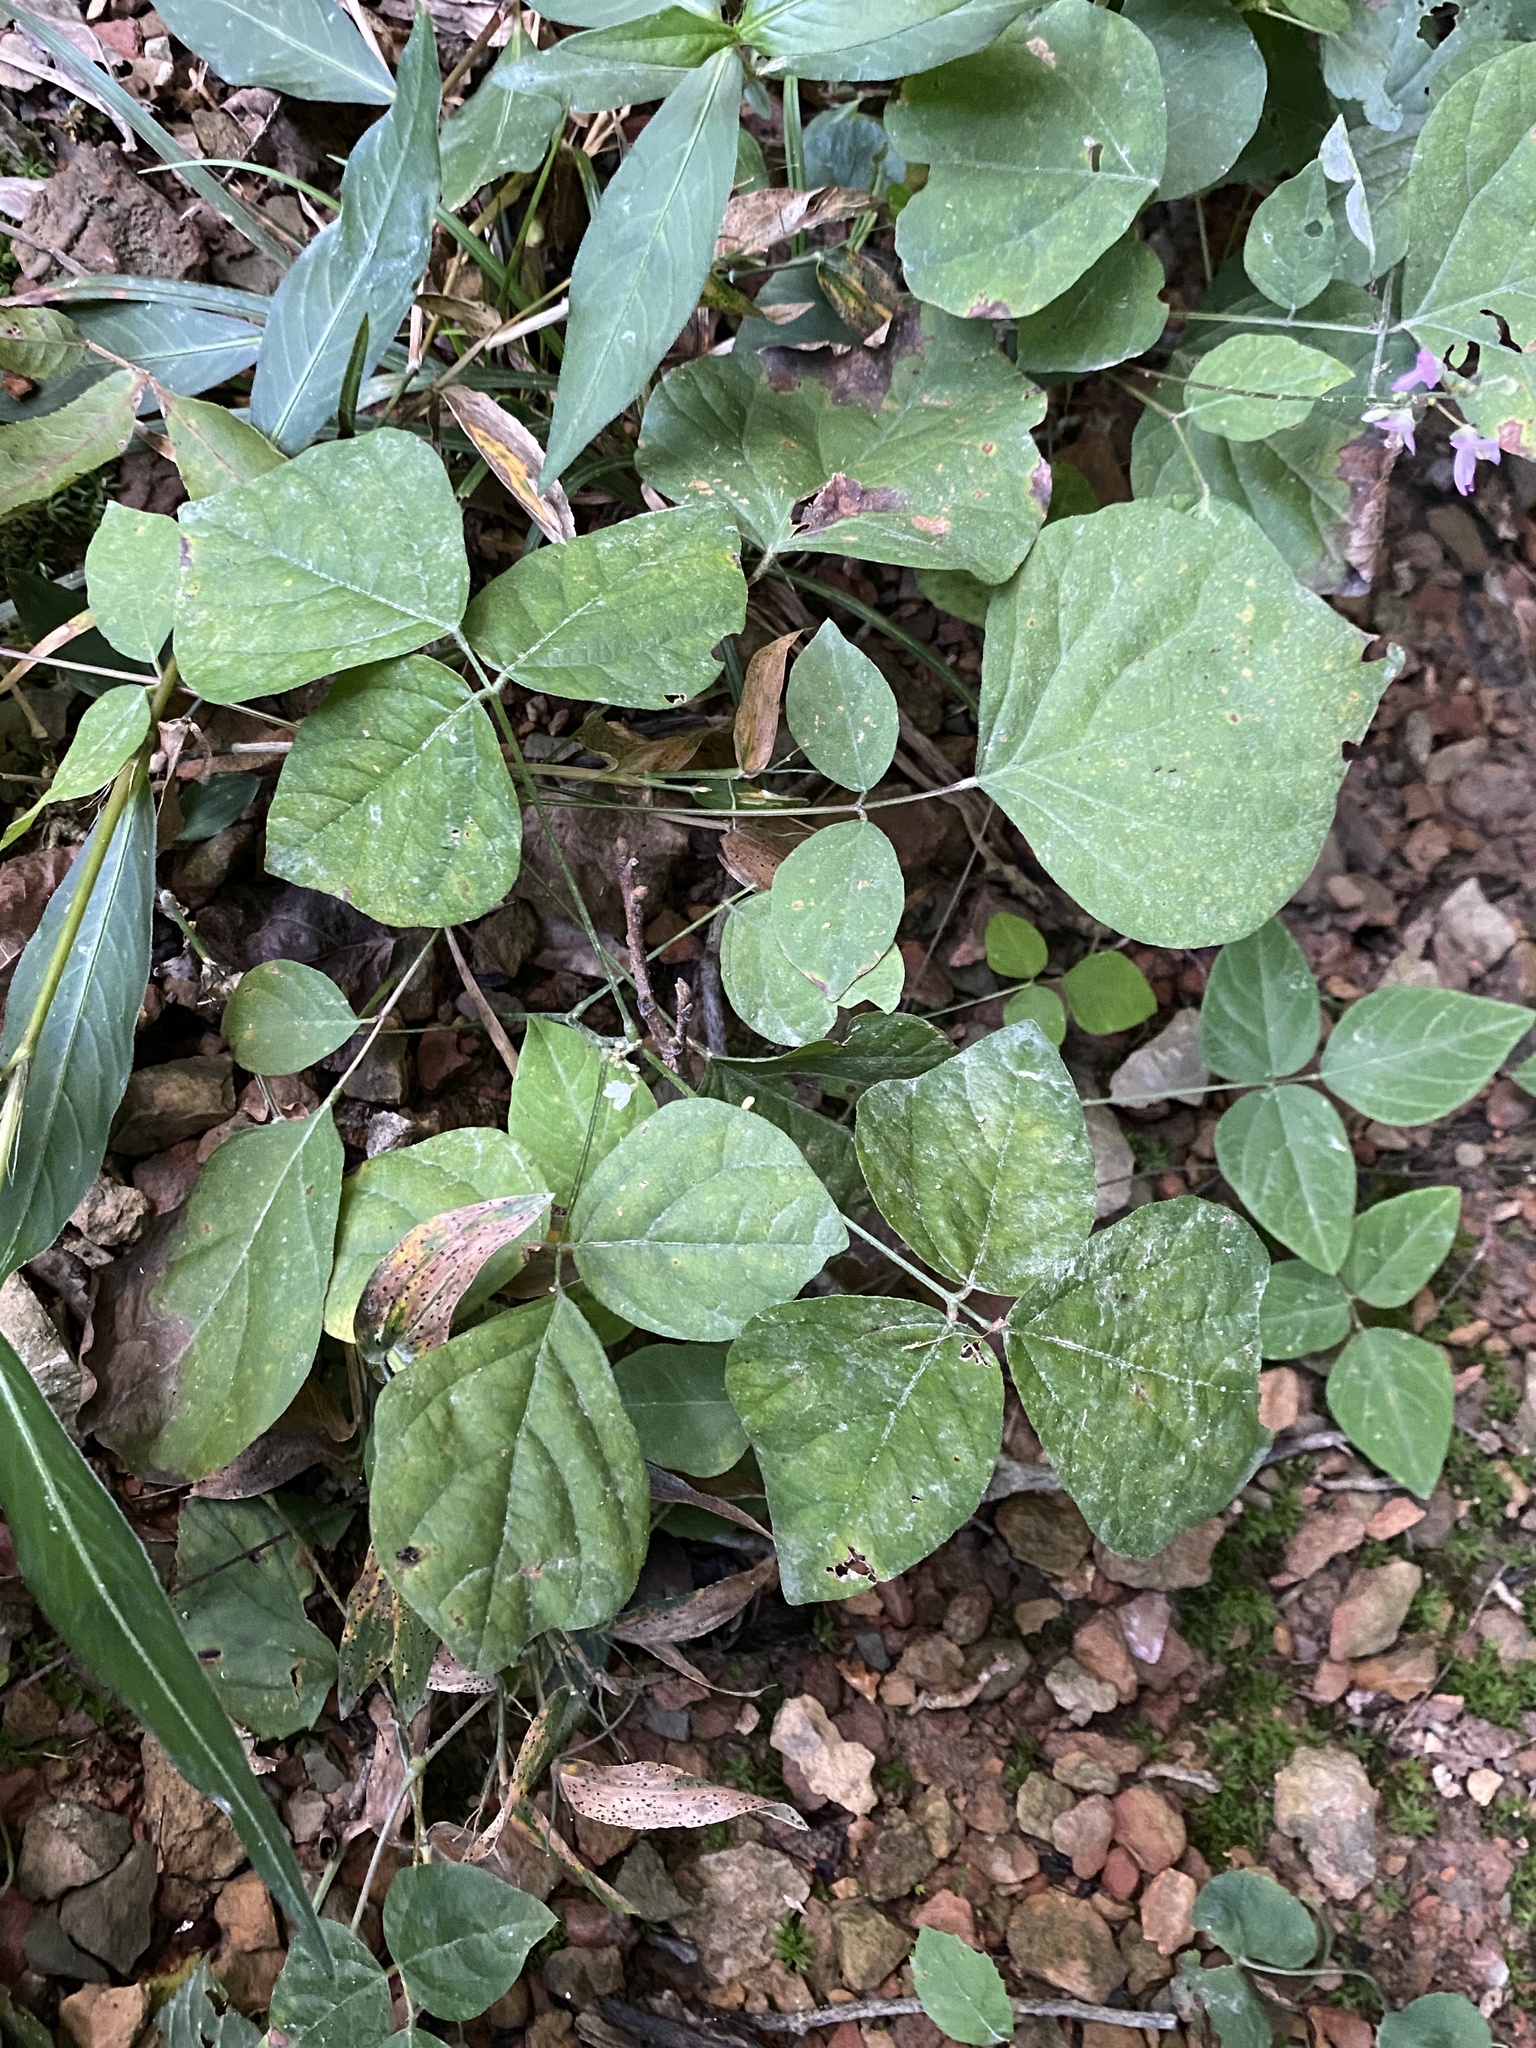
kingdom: Plantae
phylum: Tracheophyta
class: Magnoliopsida
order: Fabales
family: Fabaceae
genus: Hylodesmum
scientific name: Hylodesmum glutinosum
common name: Clustered-leaved tick-trefoil
